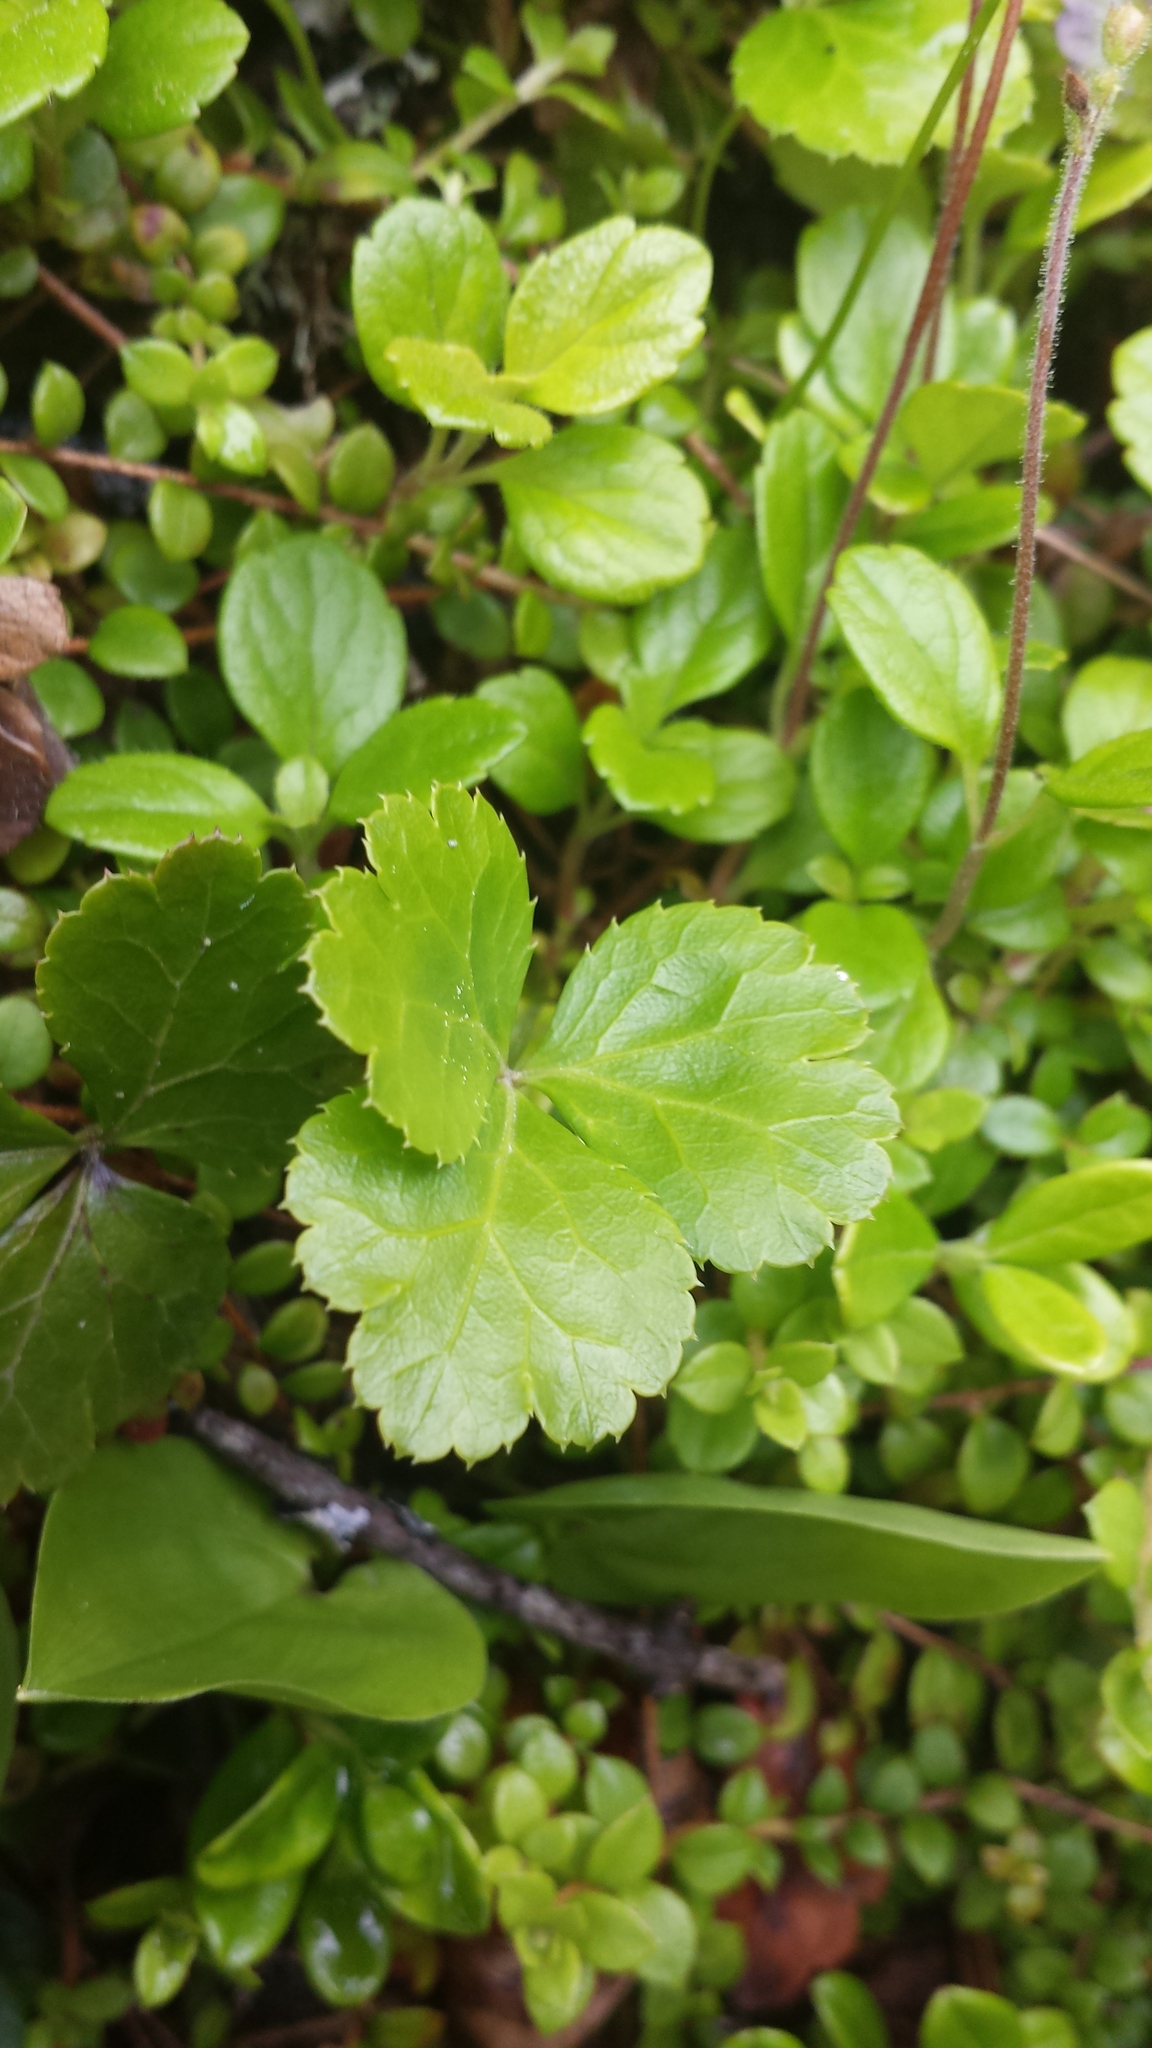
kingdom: Plantae
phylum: Tracheophyta
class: Magnoliopsida
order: Ranunculales
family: Ranunculaceae
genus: Coptis
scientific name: Coptis trifolia
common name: Canker-root
